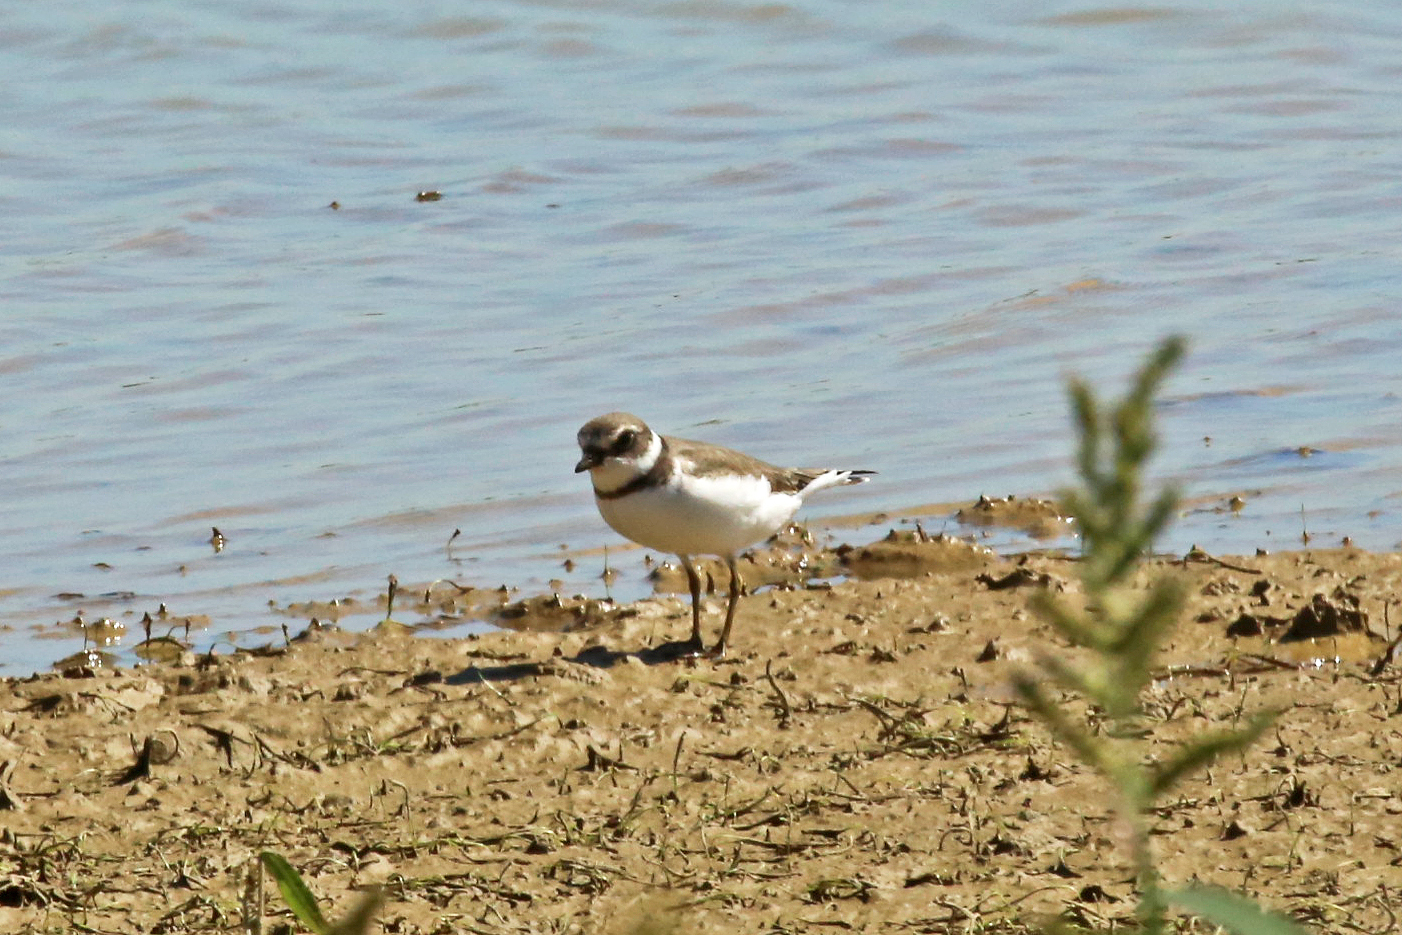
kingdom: Animalia
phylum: Chordata
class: Aves
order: Charadriiformes
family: Charadriidae
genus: Charadrius
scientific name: Charadrius semipalmatus
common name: Semipalmated plover
